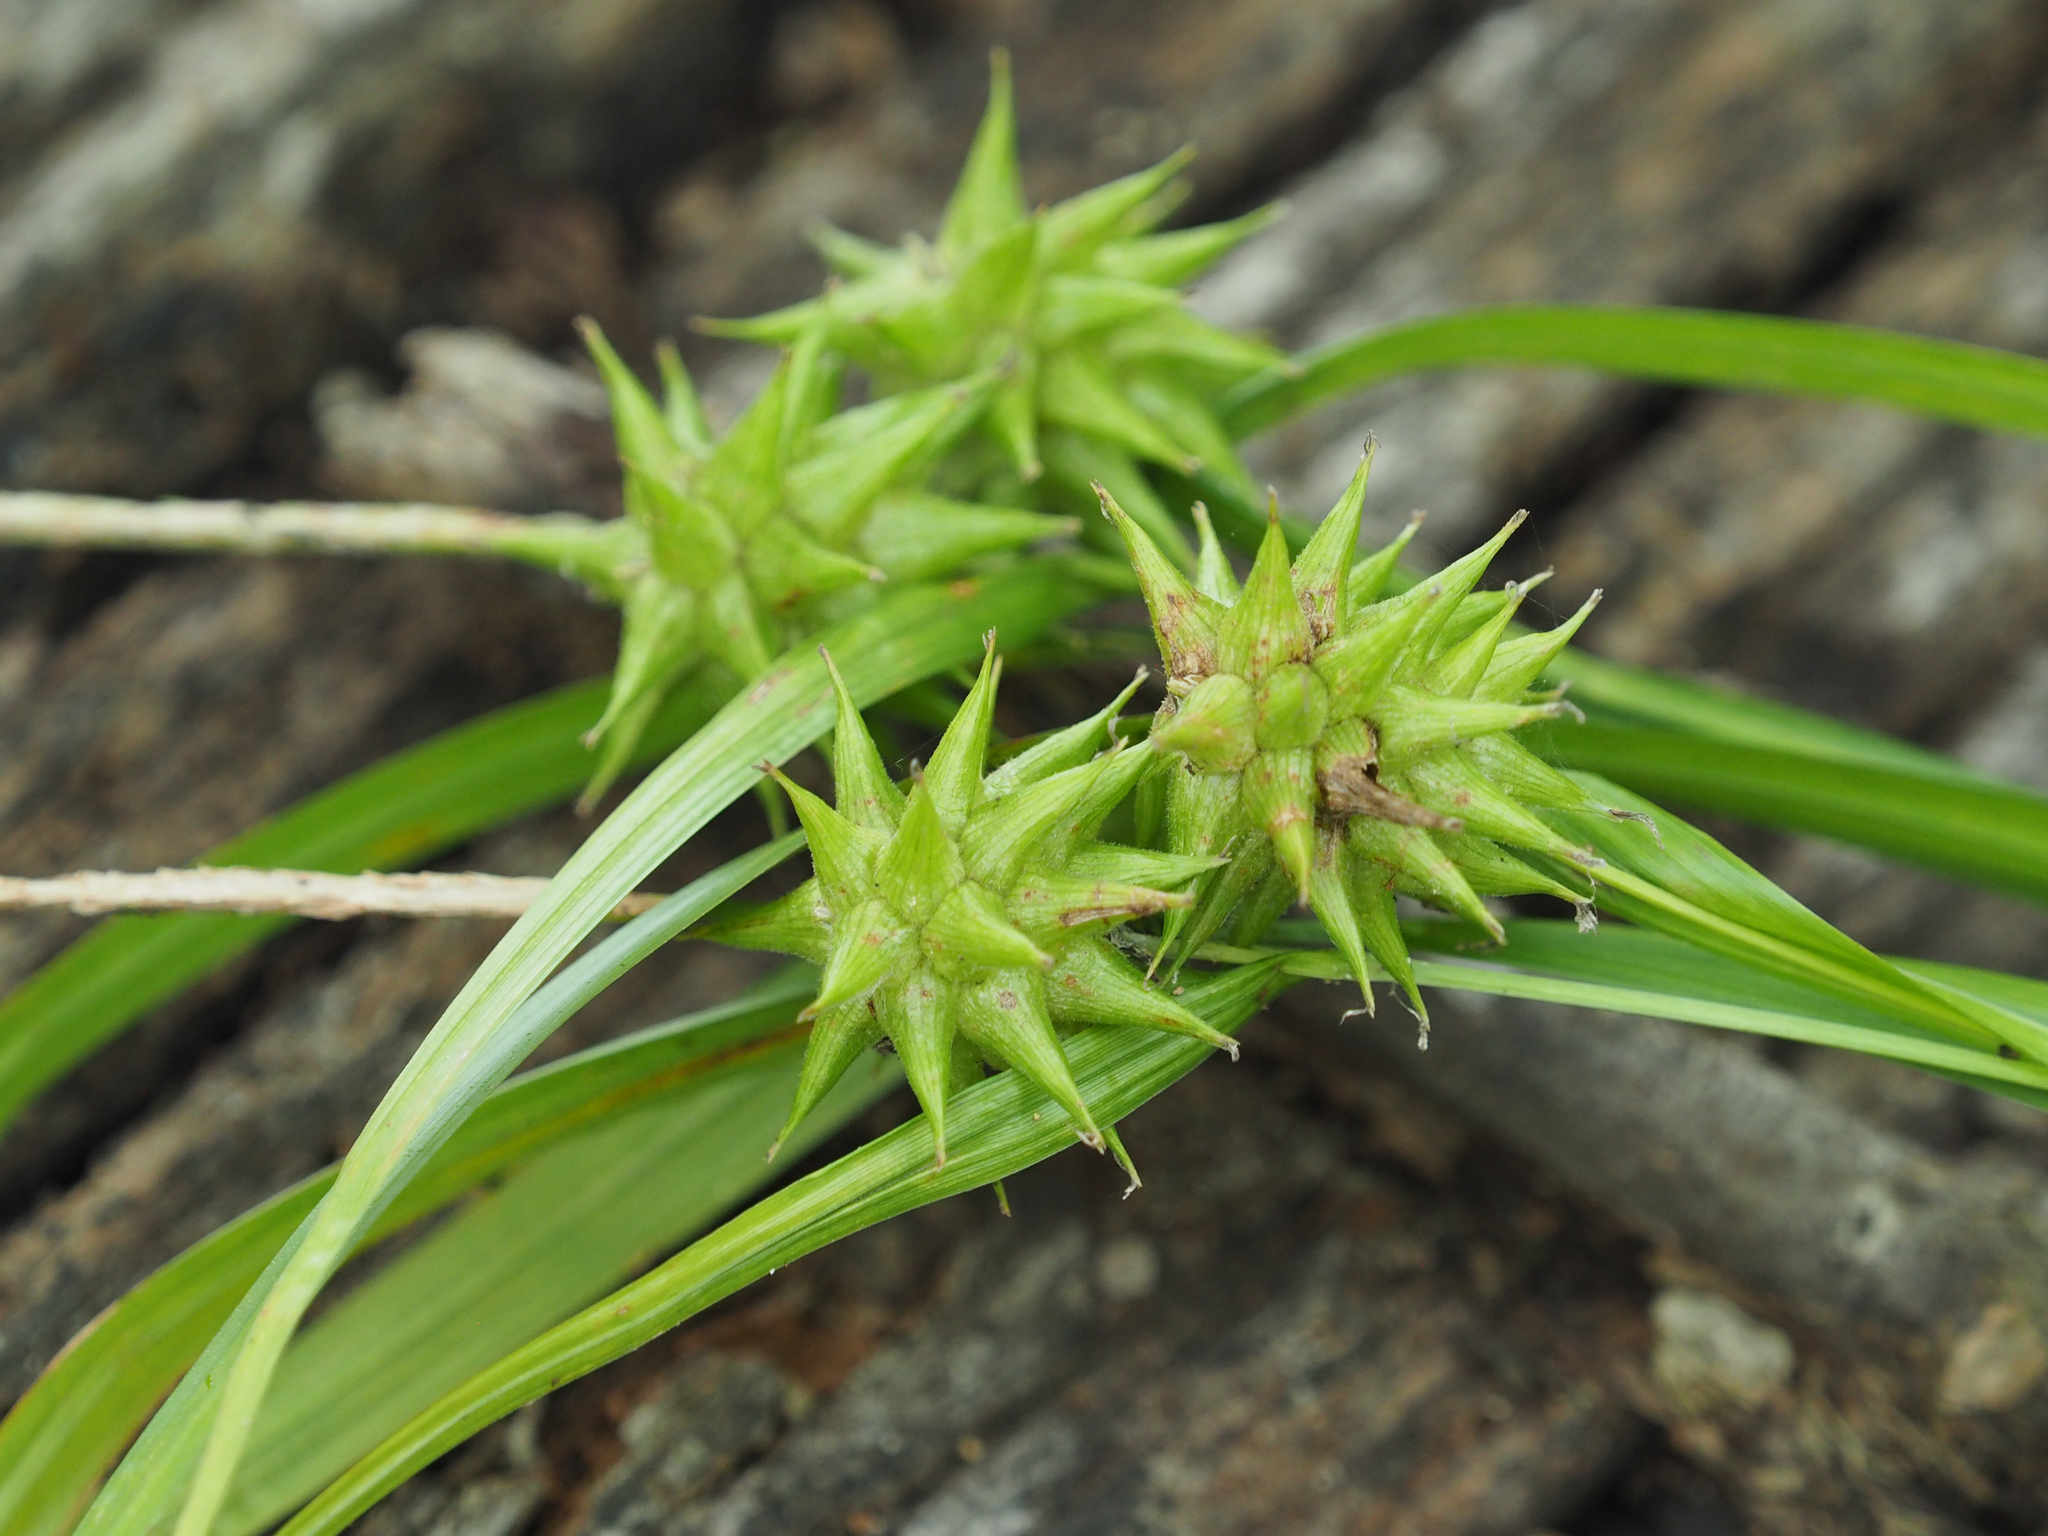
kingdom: Plantae
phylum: Tracheophyta
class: Liliopsida
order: Poales
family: Cyperaceae
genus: Carex
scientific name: Carex grayi
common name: Asa gray's sedge
